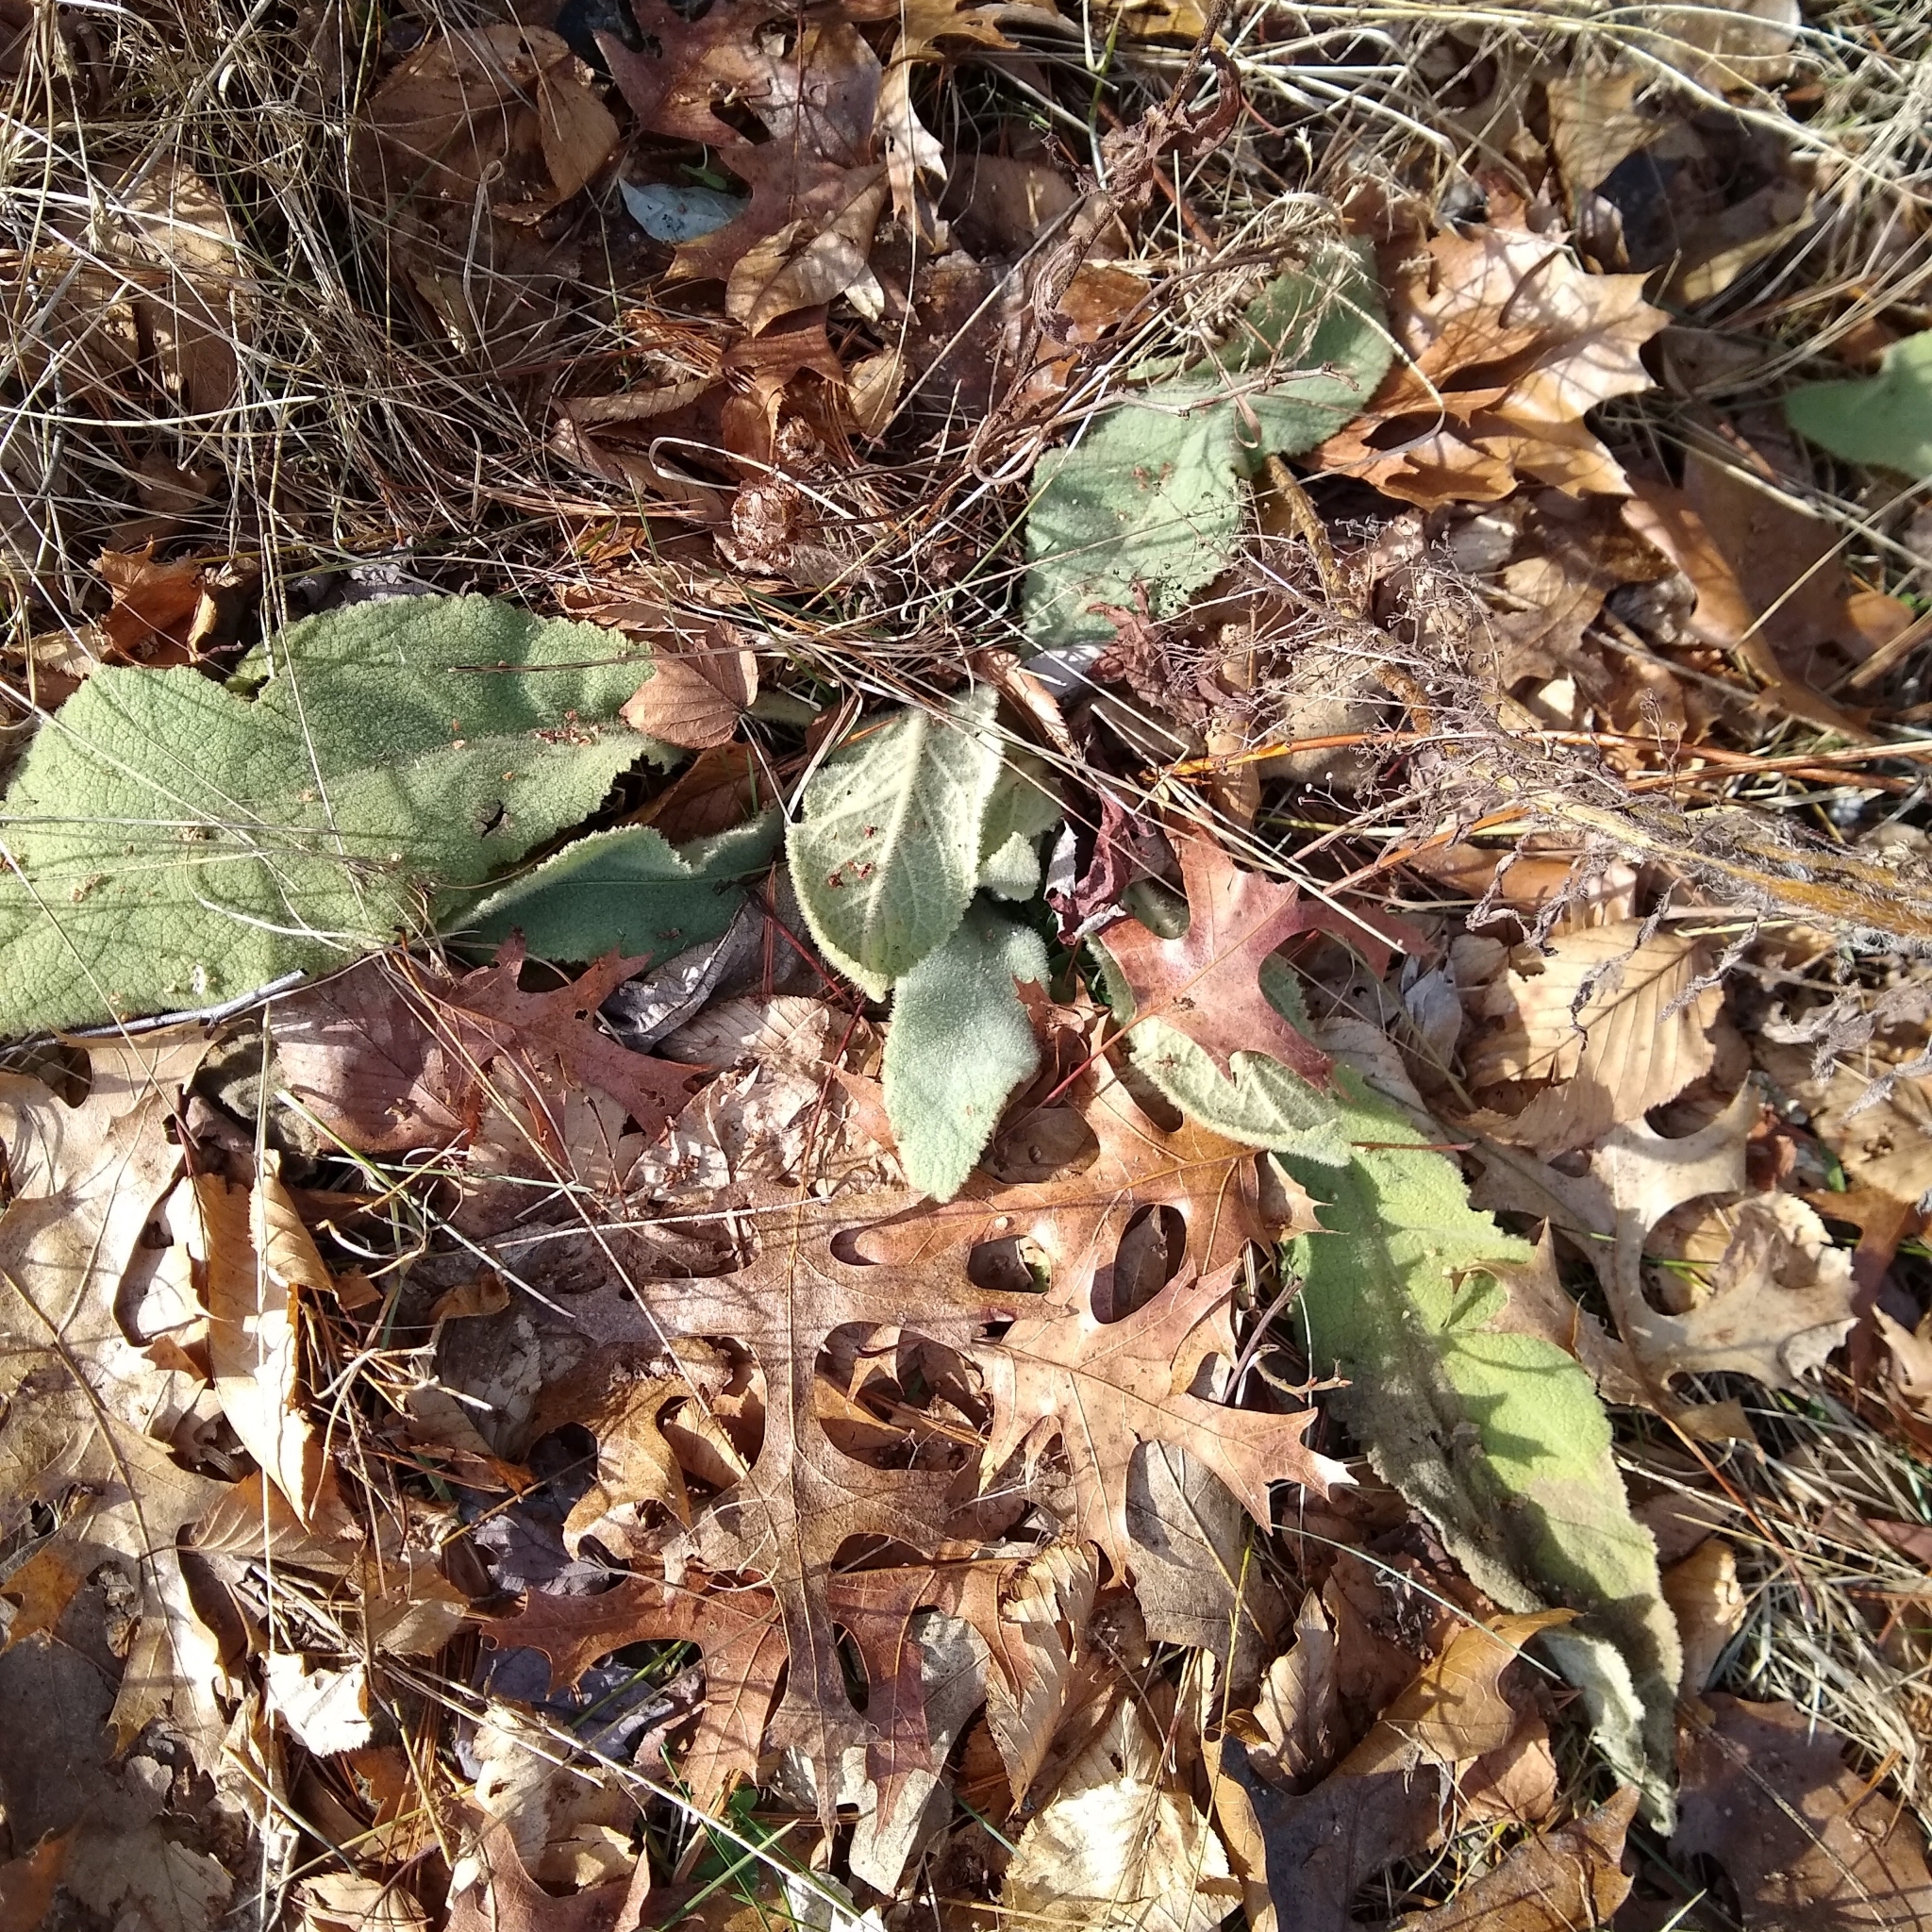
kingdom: Plantae
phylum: Tracheophyta
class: Magnoliopsida
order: Lamiales
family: Scrophulariaceae
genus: Verbascum
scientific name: Verbascum thapsus
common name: Common mullein
